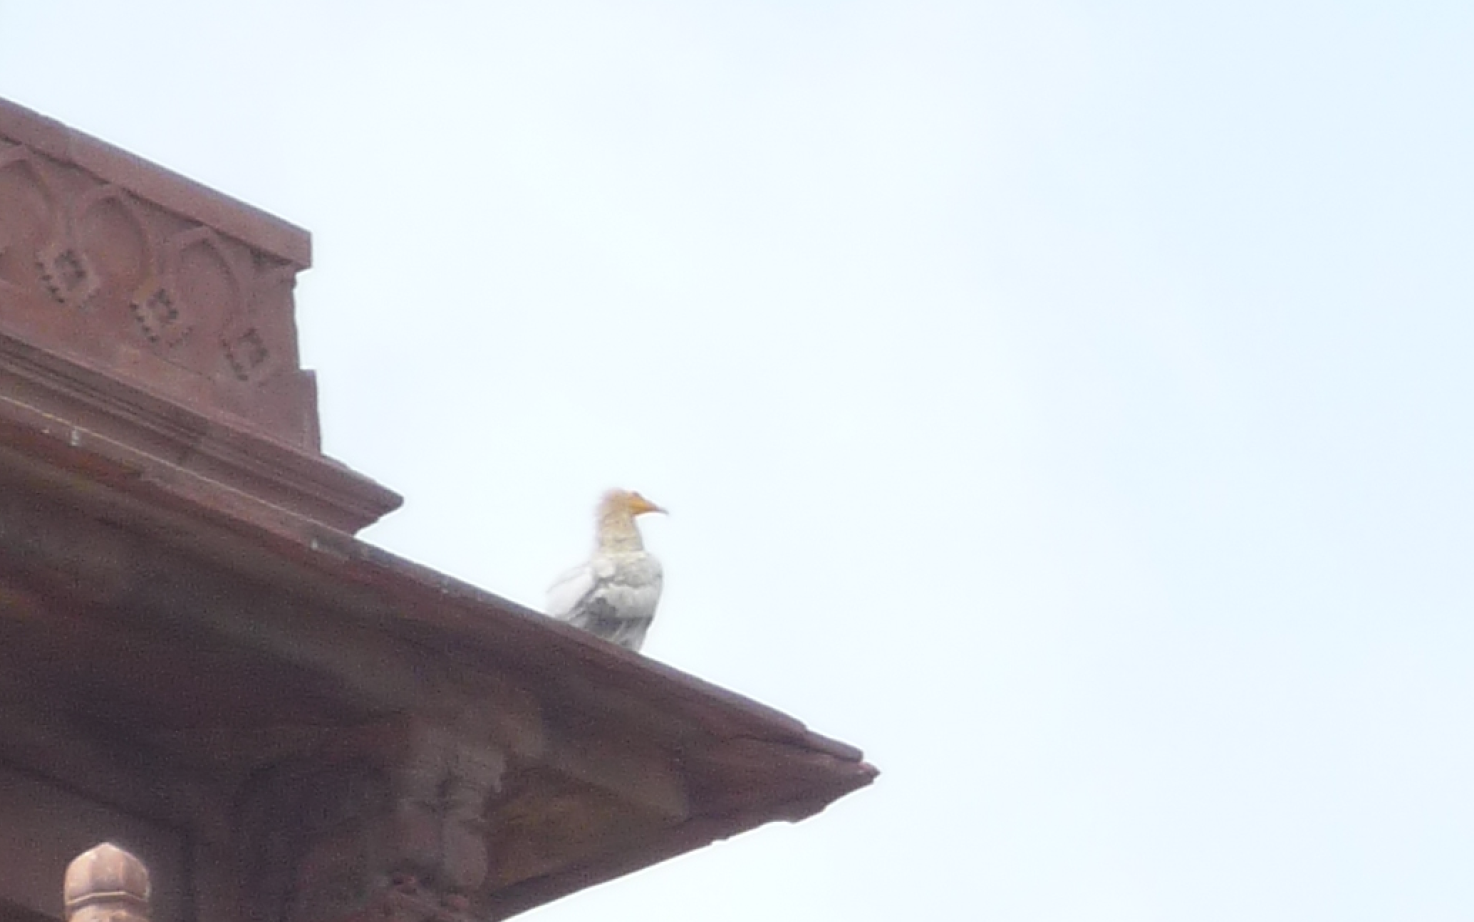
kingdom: Animalia
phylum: Chordata
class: Aves
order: Accipitriformes
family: Accipitridae
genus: Neophron
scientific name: Neophron percnopterus
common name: Egyptian vulture
